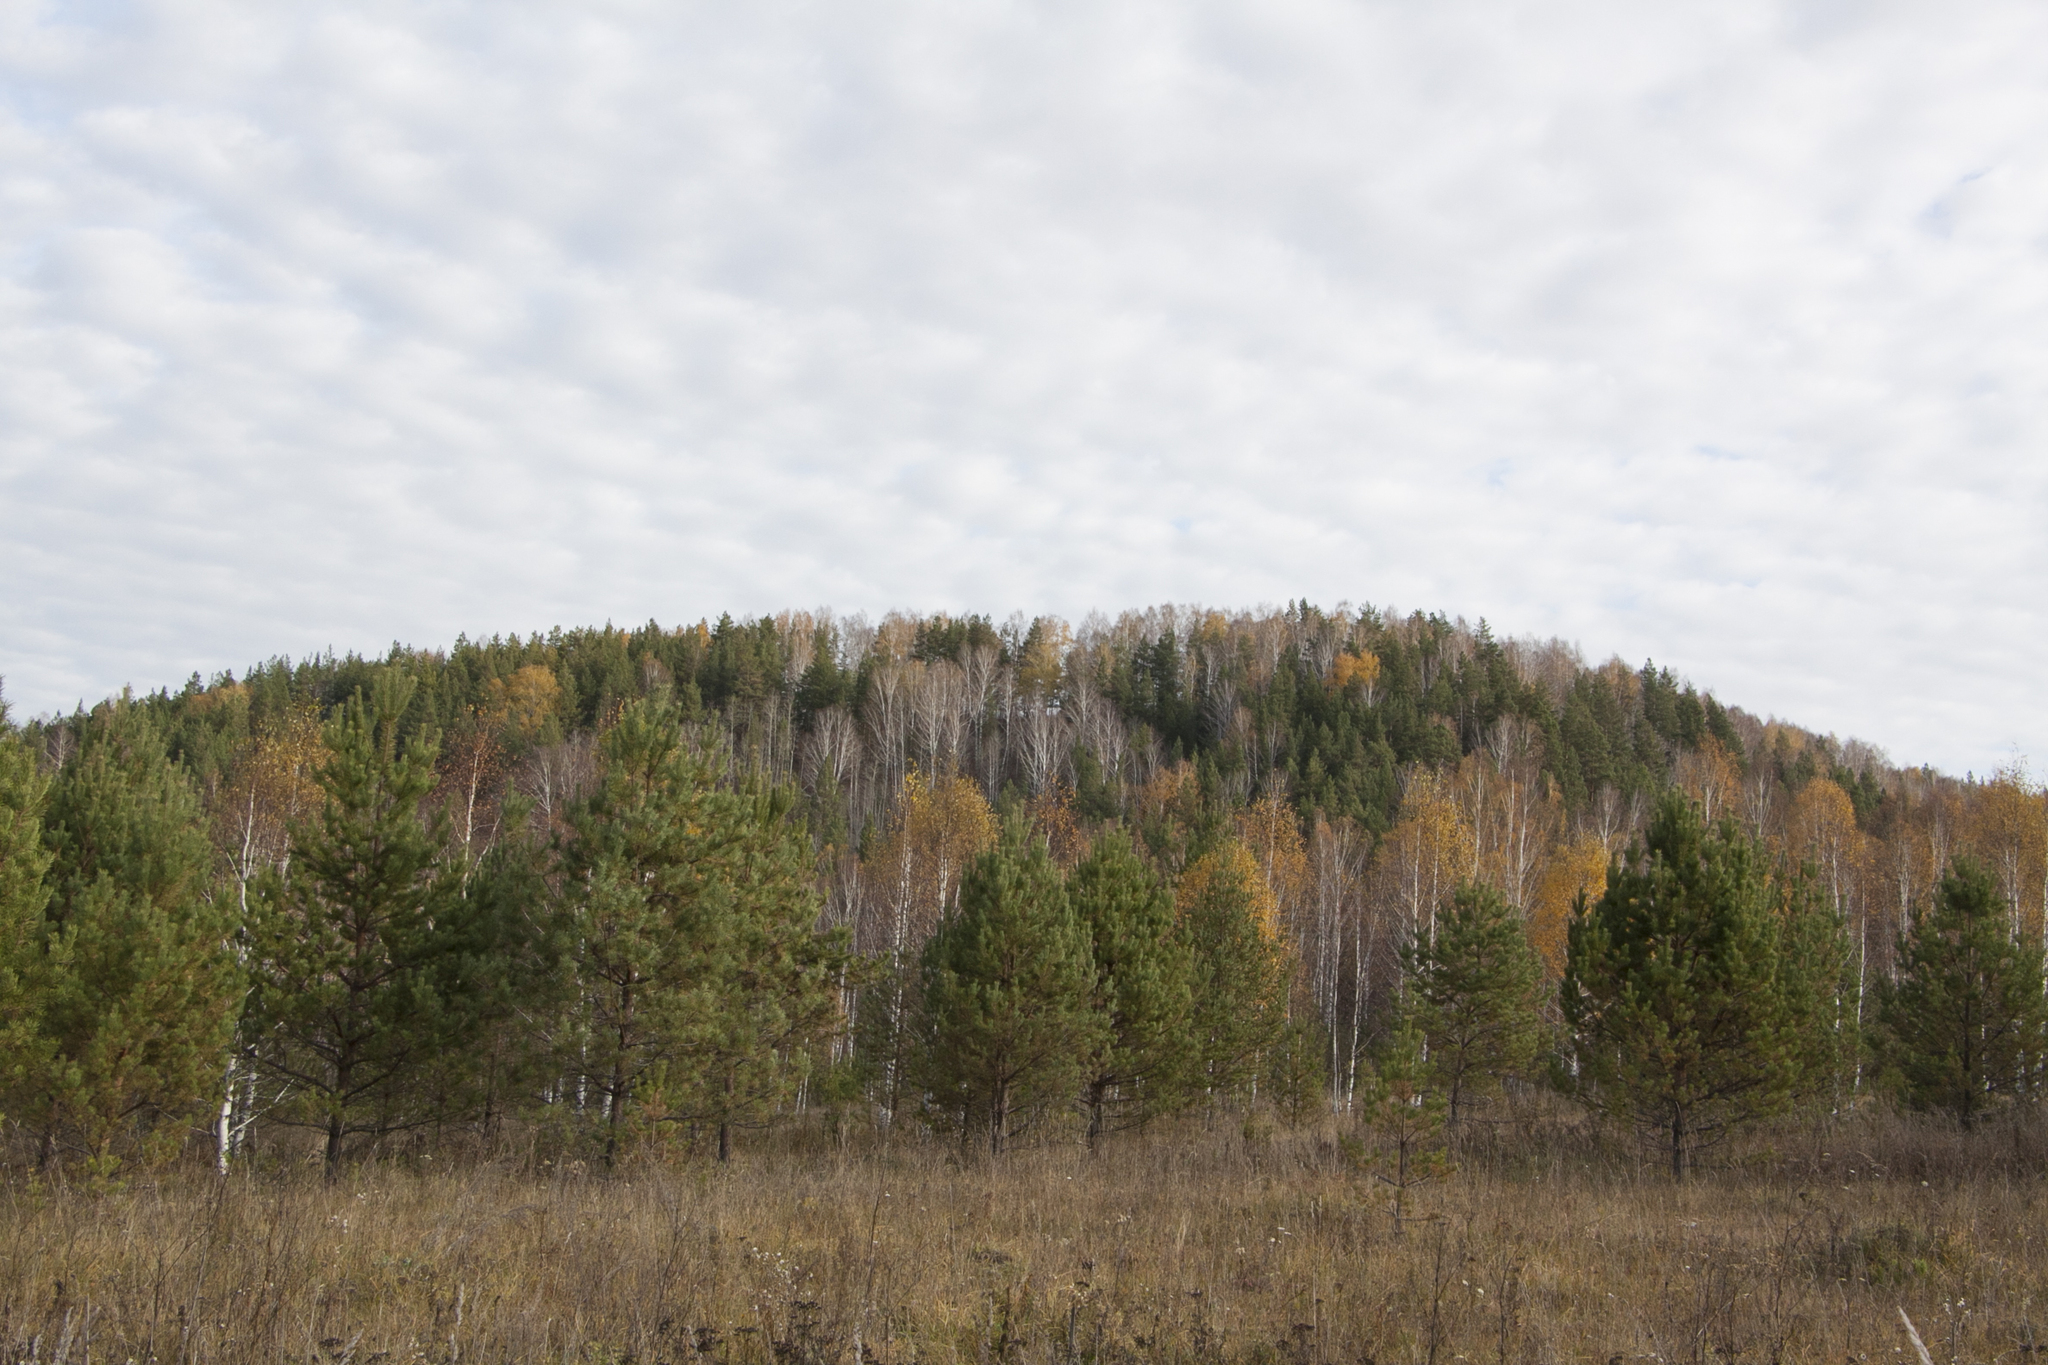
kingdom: Plantae
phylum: Tracheophyta
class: Pinopsida
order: Pinales
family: Pinaceae
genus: Pinus
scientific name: Pinus sylvestris
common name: Scots pine
